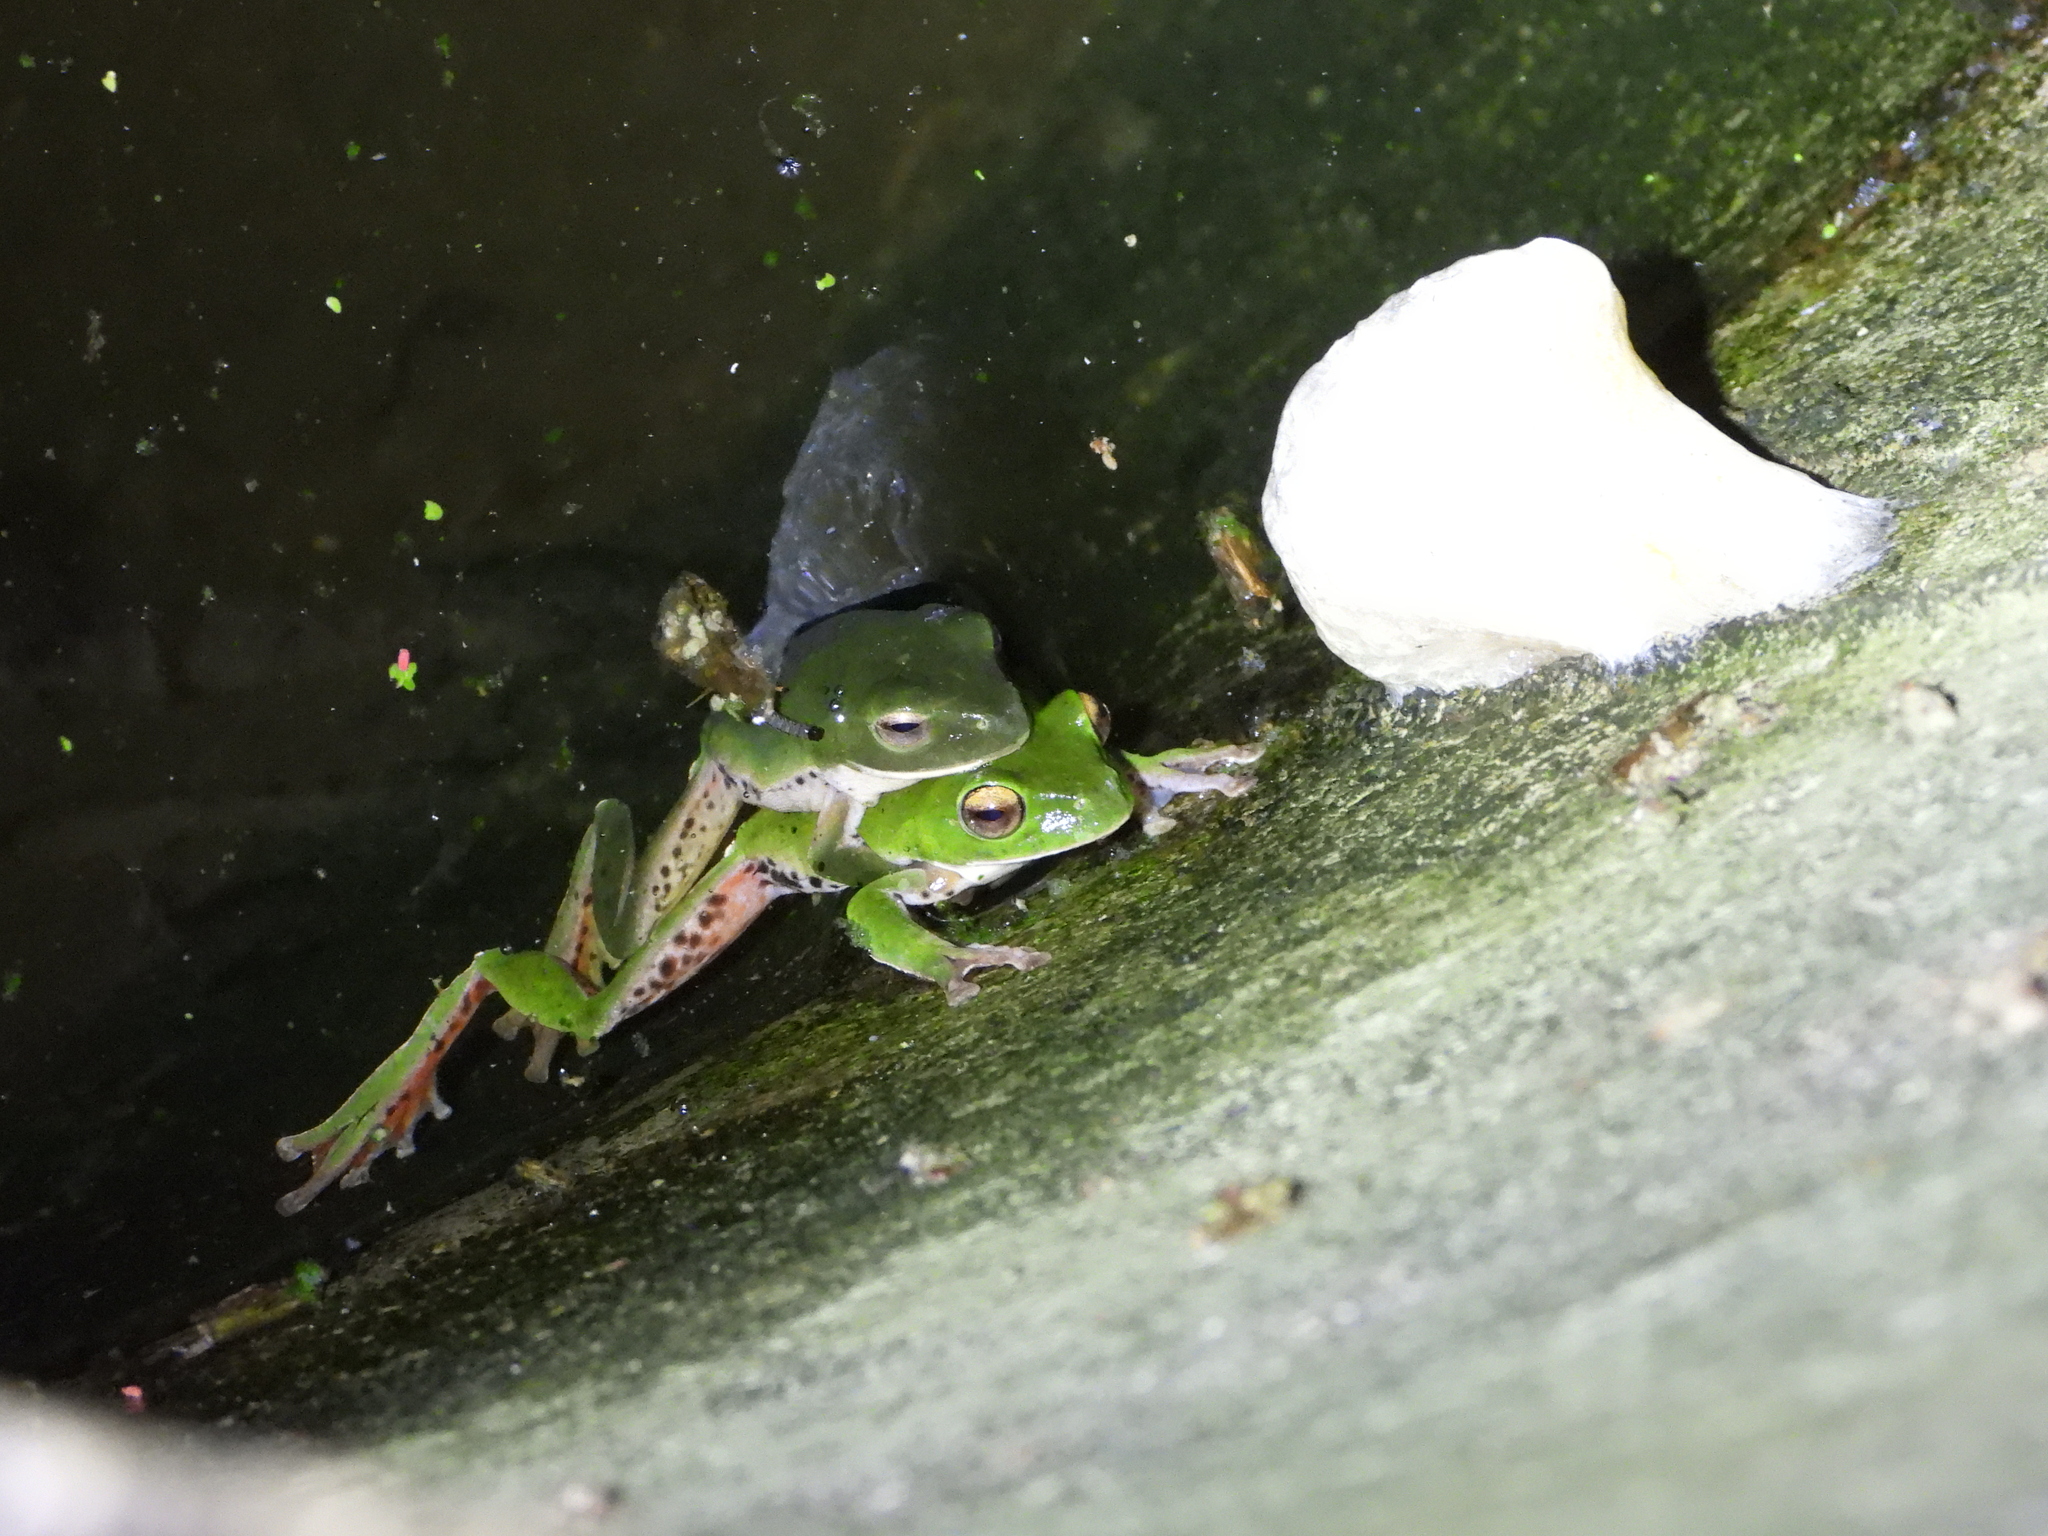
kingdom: Animalia
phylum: Chordata
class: Amphibia
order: Anura
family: Rhacophoridae
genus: Zhangixalus
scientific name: Zhangixalus moltrechti
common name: Moltrecht's treefrog
